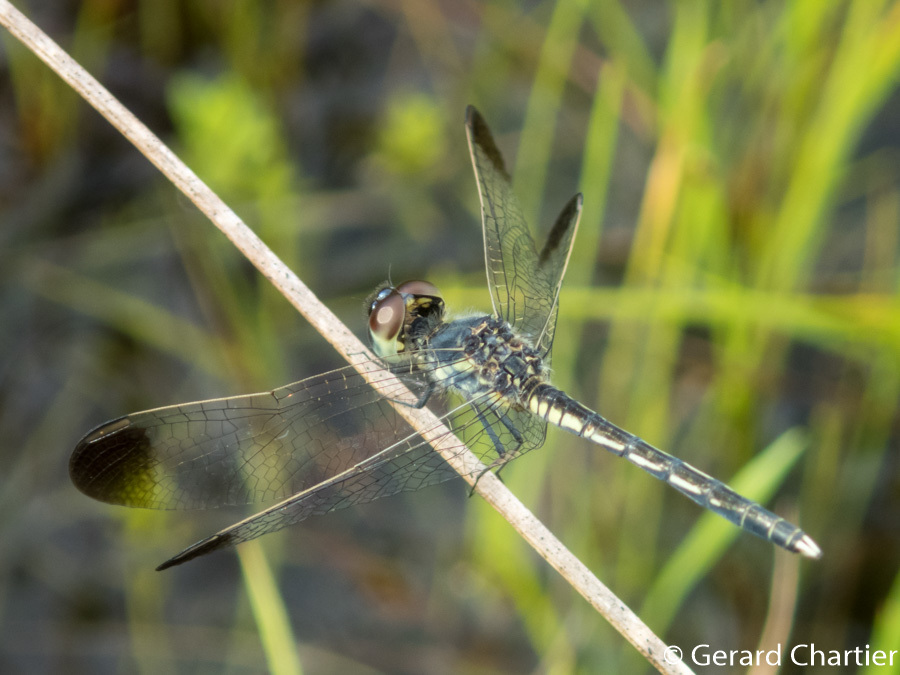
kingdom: Animalia
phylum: Arthropoda
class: Insecta
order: Odonata
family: Libellulidae
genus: Diplacodes
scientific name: Diplacodes nebulosa
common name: Black-tipped percher
